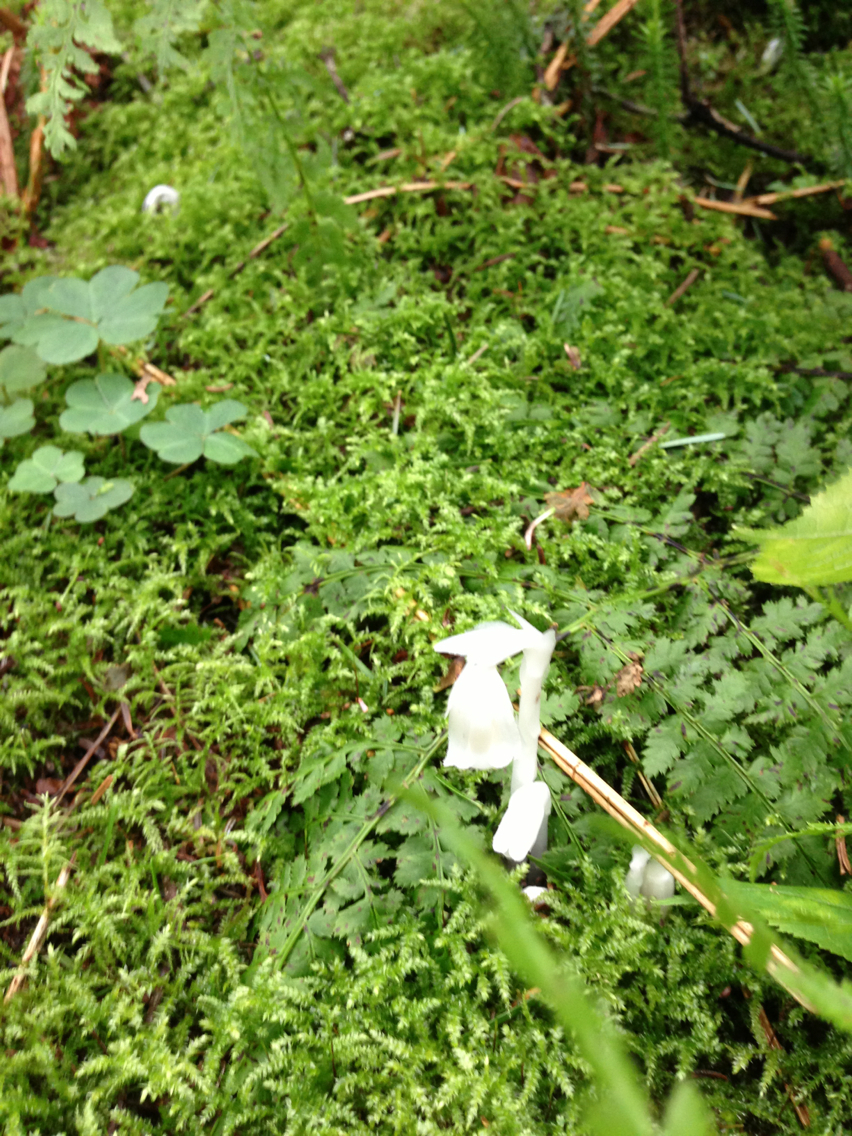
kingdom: Plantae
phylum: Tracheophyta
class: Magnoliopsida
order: Ericales
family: Ericaceae
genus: Monotropa
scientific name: Monotropa uniflora
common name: Convulsion root
